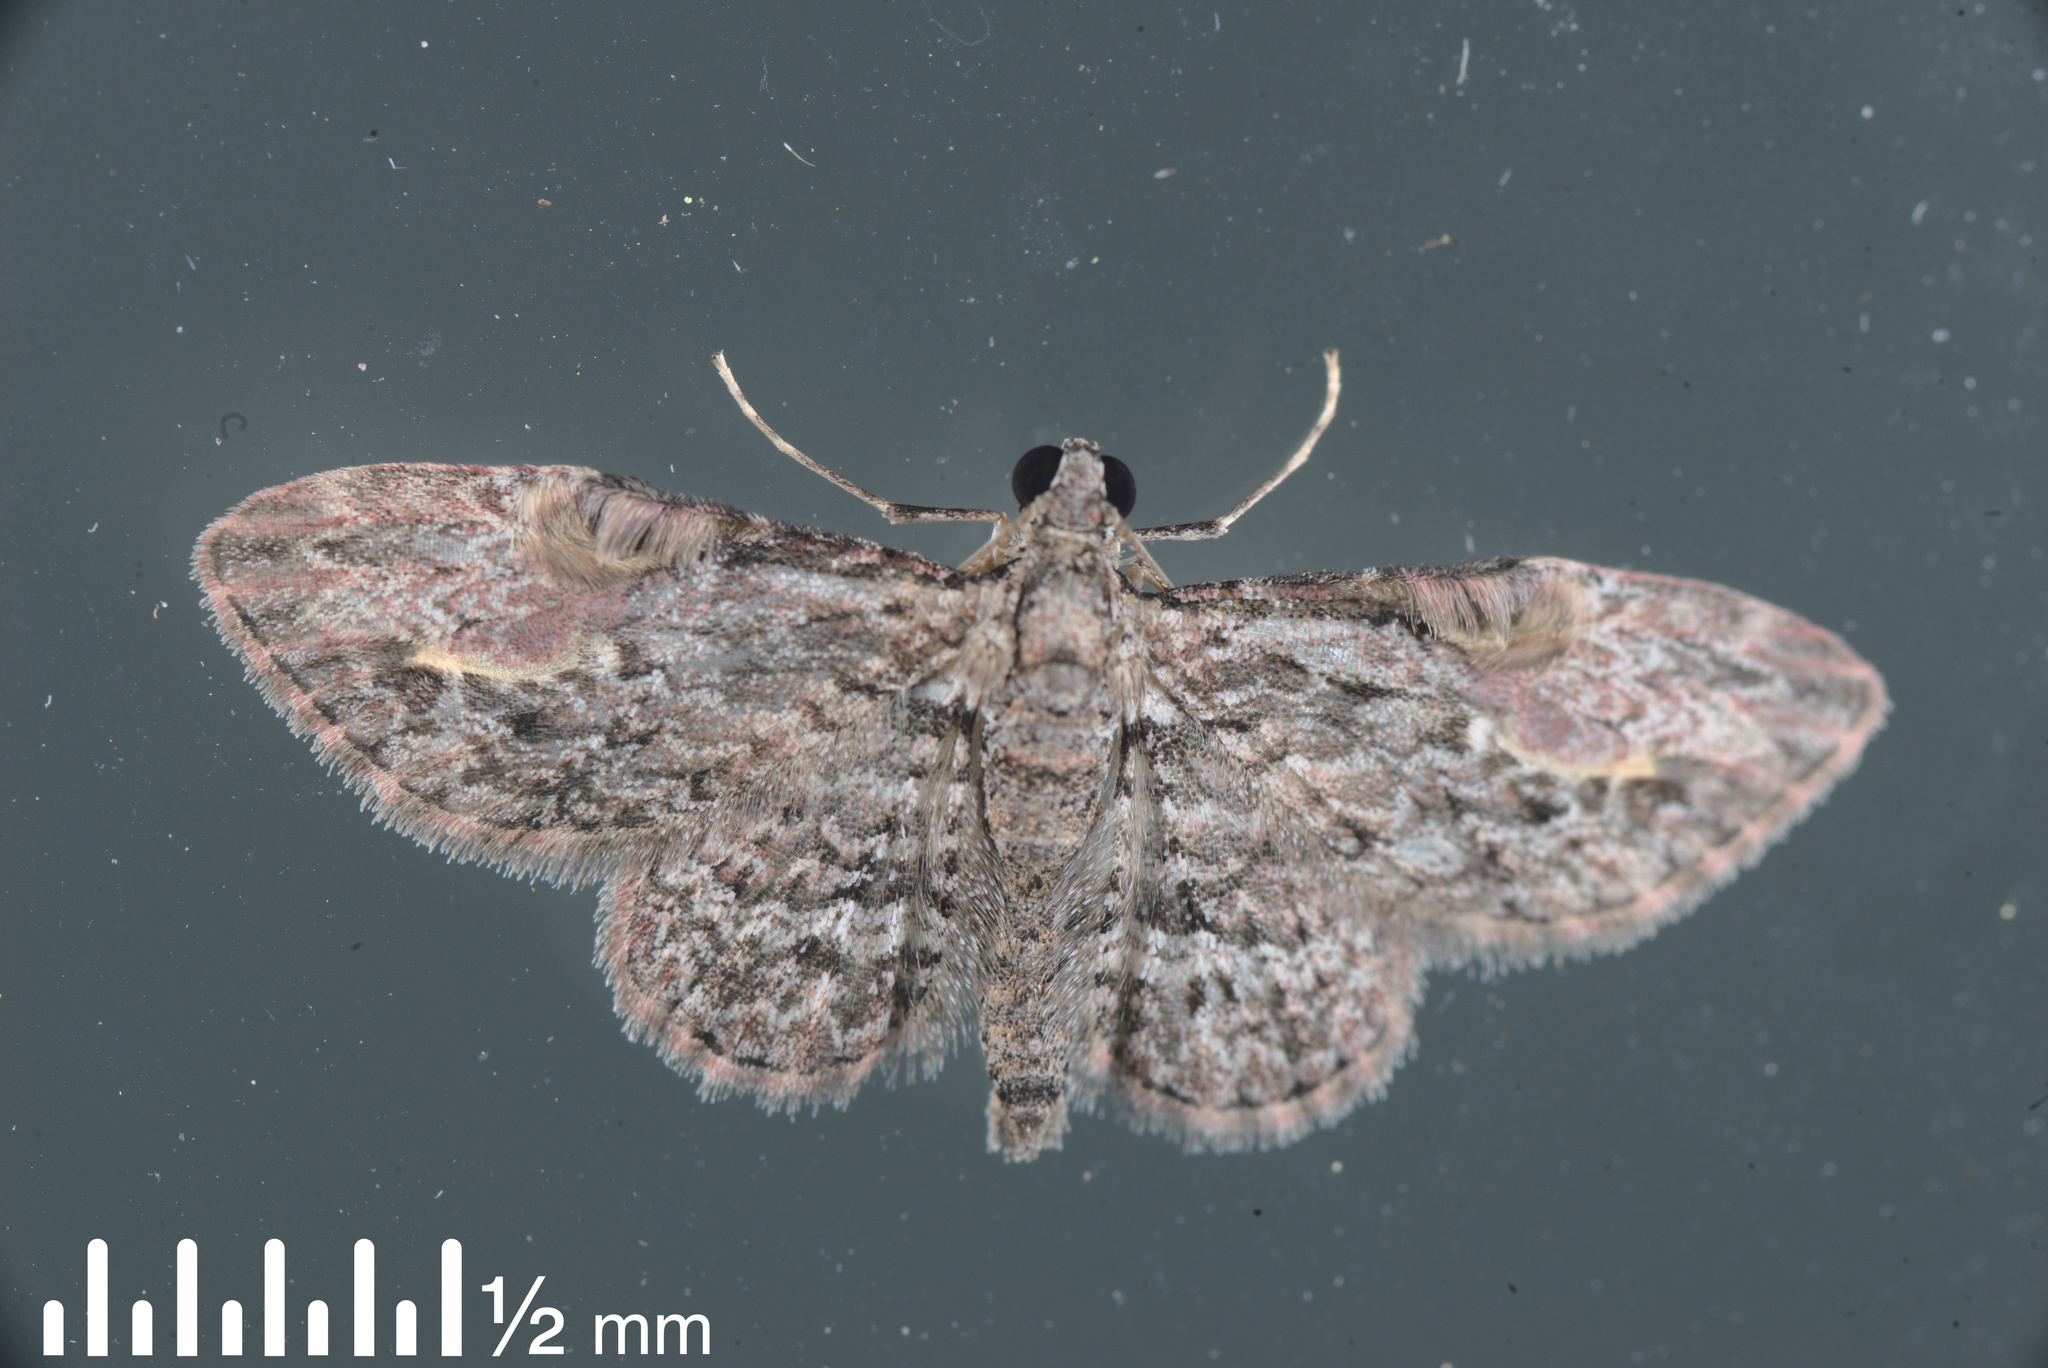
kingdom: Animalia
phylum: Arthropoda
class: Insecta
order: Lepidoptera
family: Geometridae
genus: Chloroclystis
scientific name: Chloroclystis insigillata
